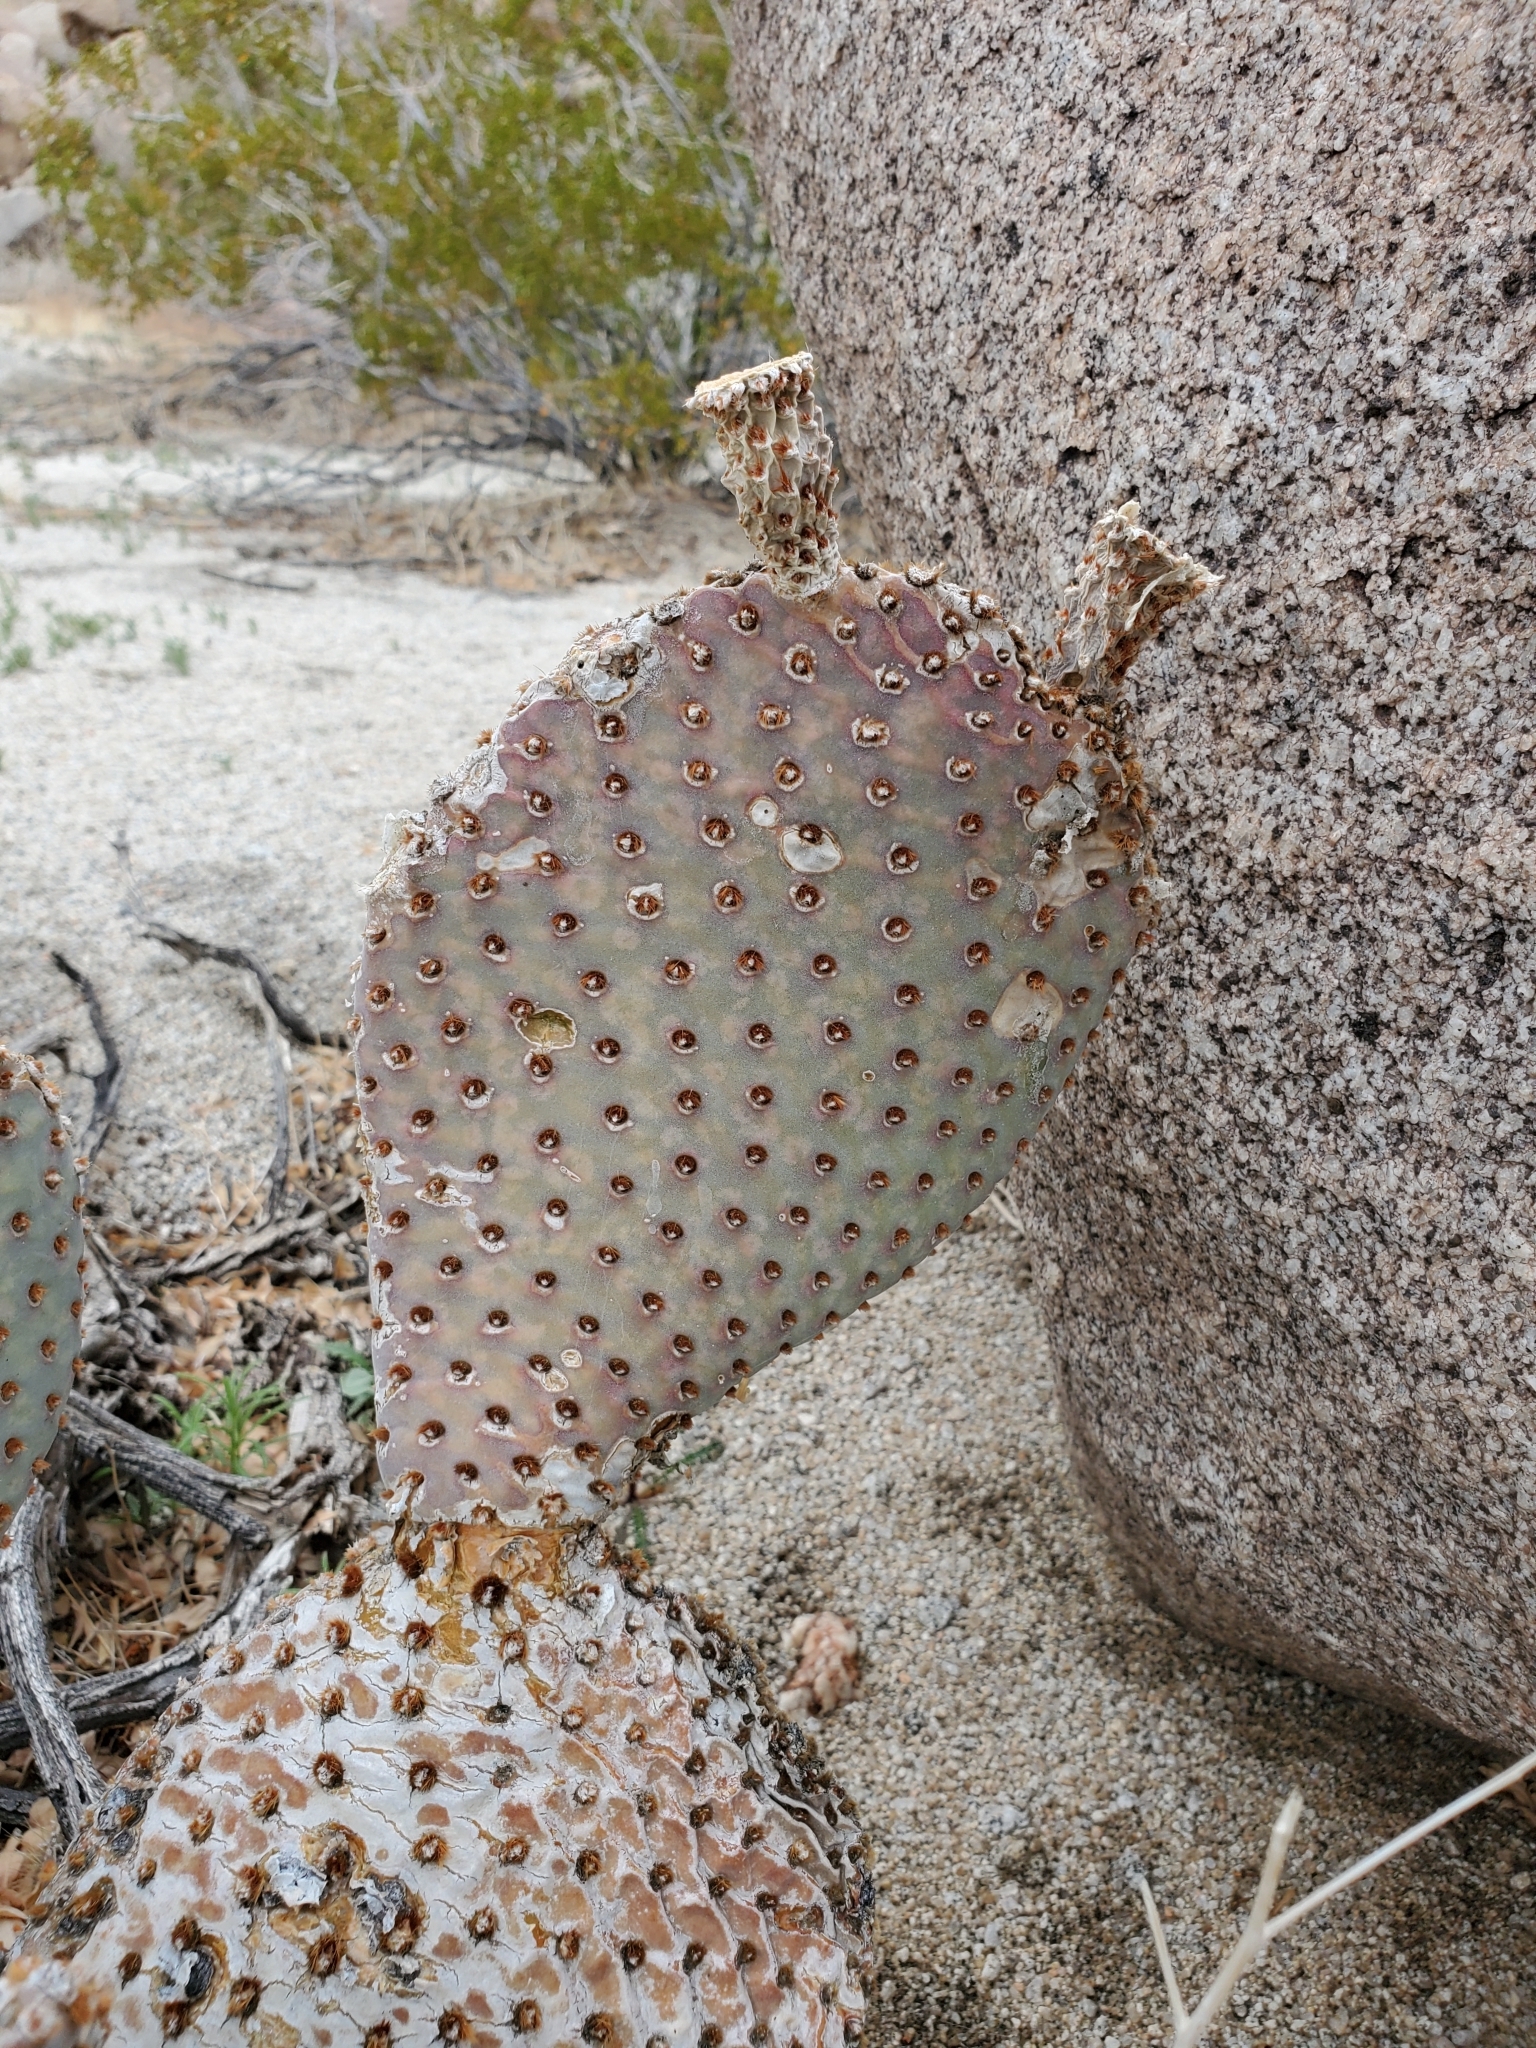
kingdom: Plantae
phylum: Tracheophyta
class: Magnoliopsida
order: Caryophyllales
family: Cactaceae
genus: Opuntia
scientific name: Opuntia basilaris
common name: Beavertail prickly-pear
